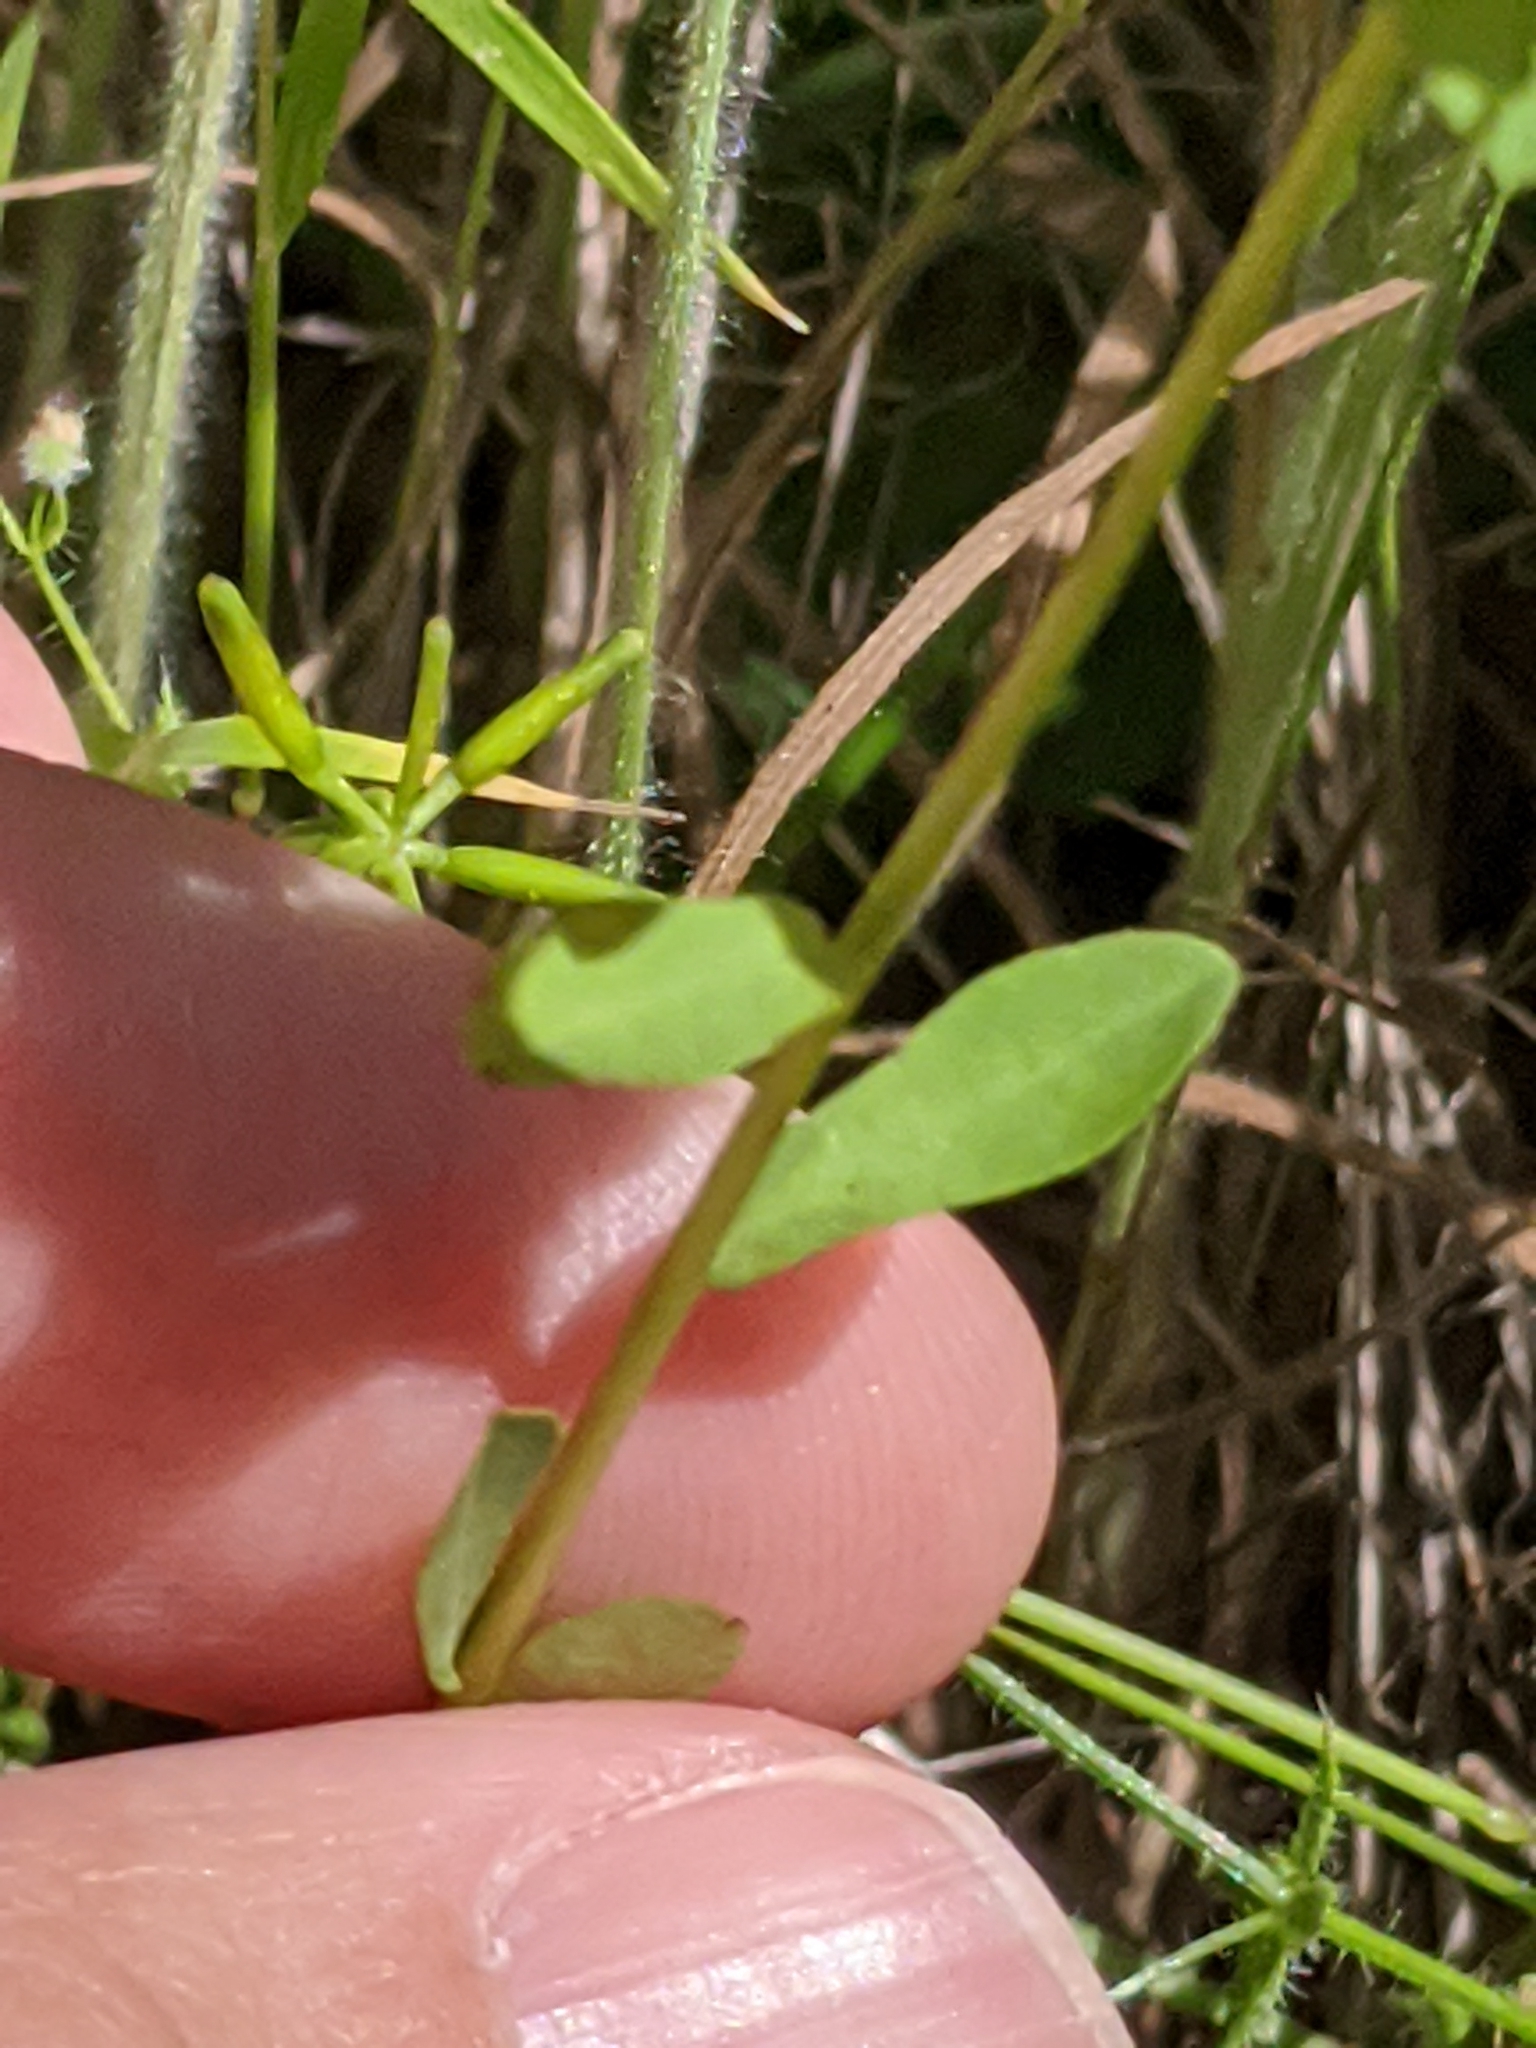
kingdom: Plantae
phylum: Tracheophyta
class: Magnoliopsida
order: Malpighiales
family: Euphorbiaceae
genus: Euphorbia
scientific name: Euphorbia spathulata
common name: Blunt spurge
